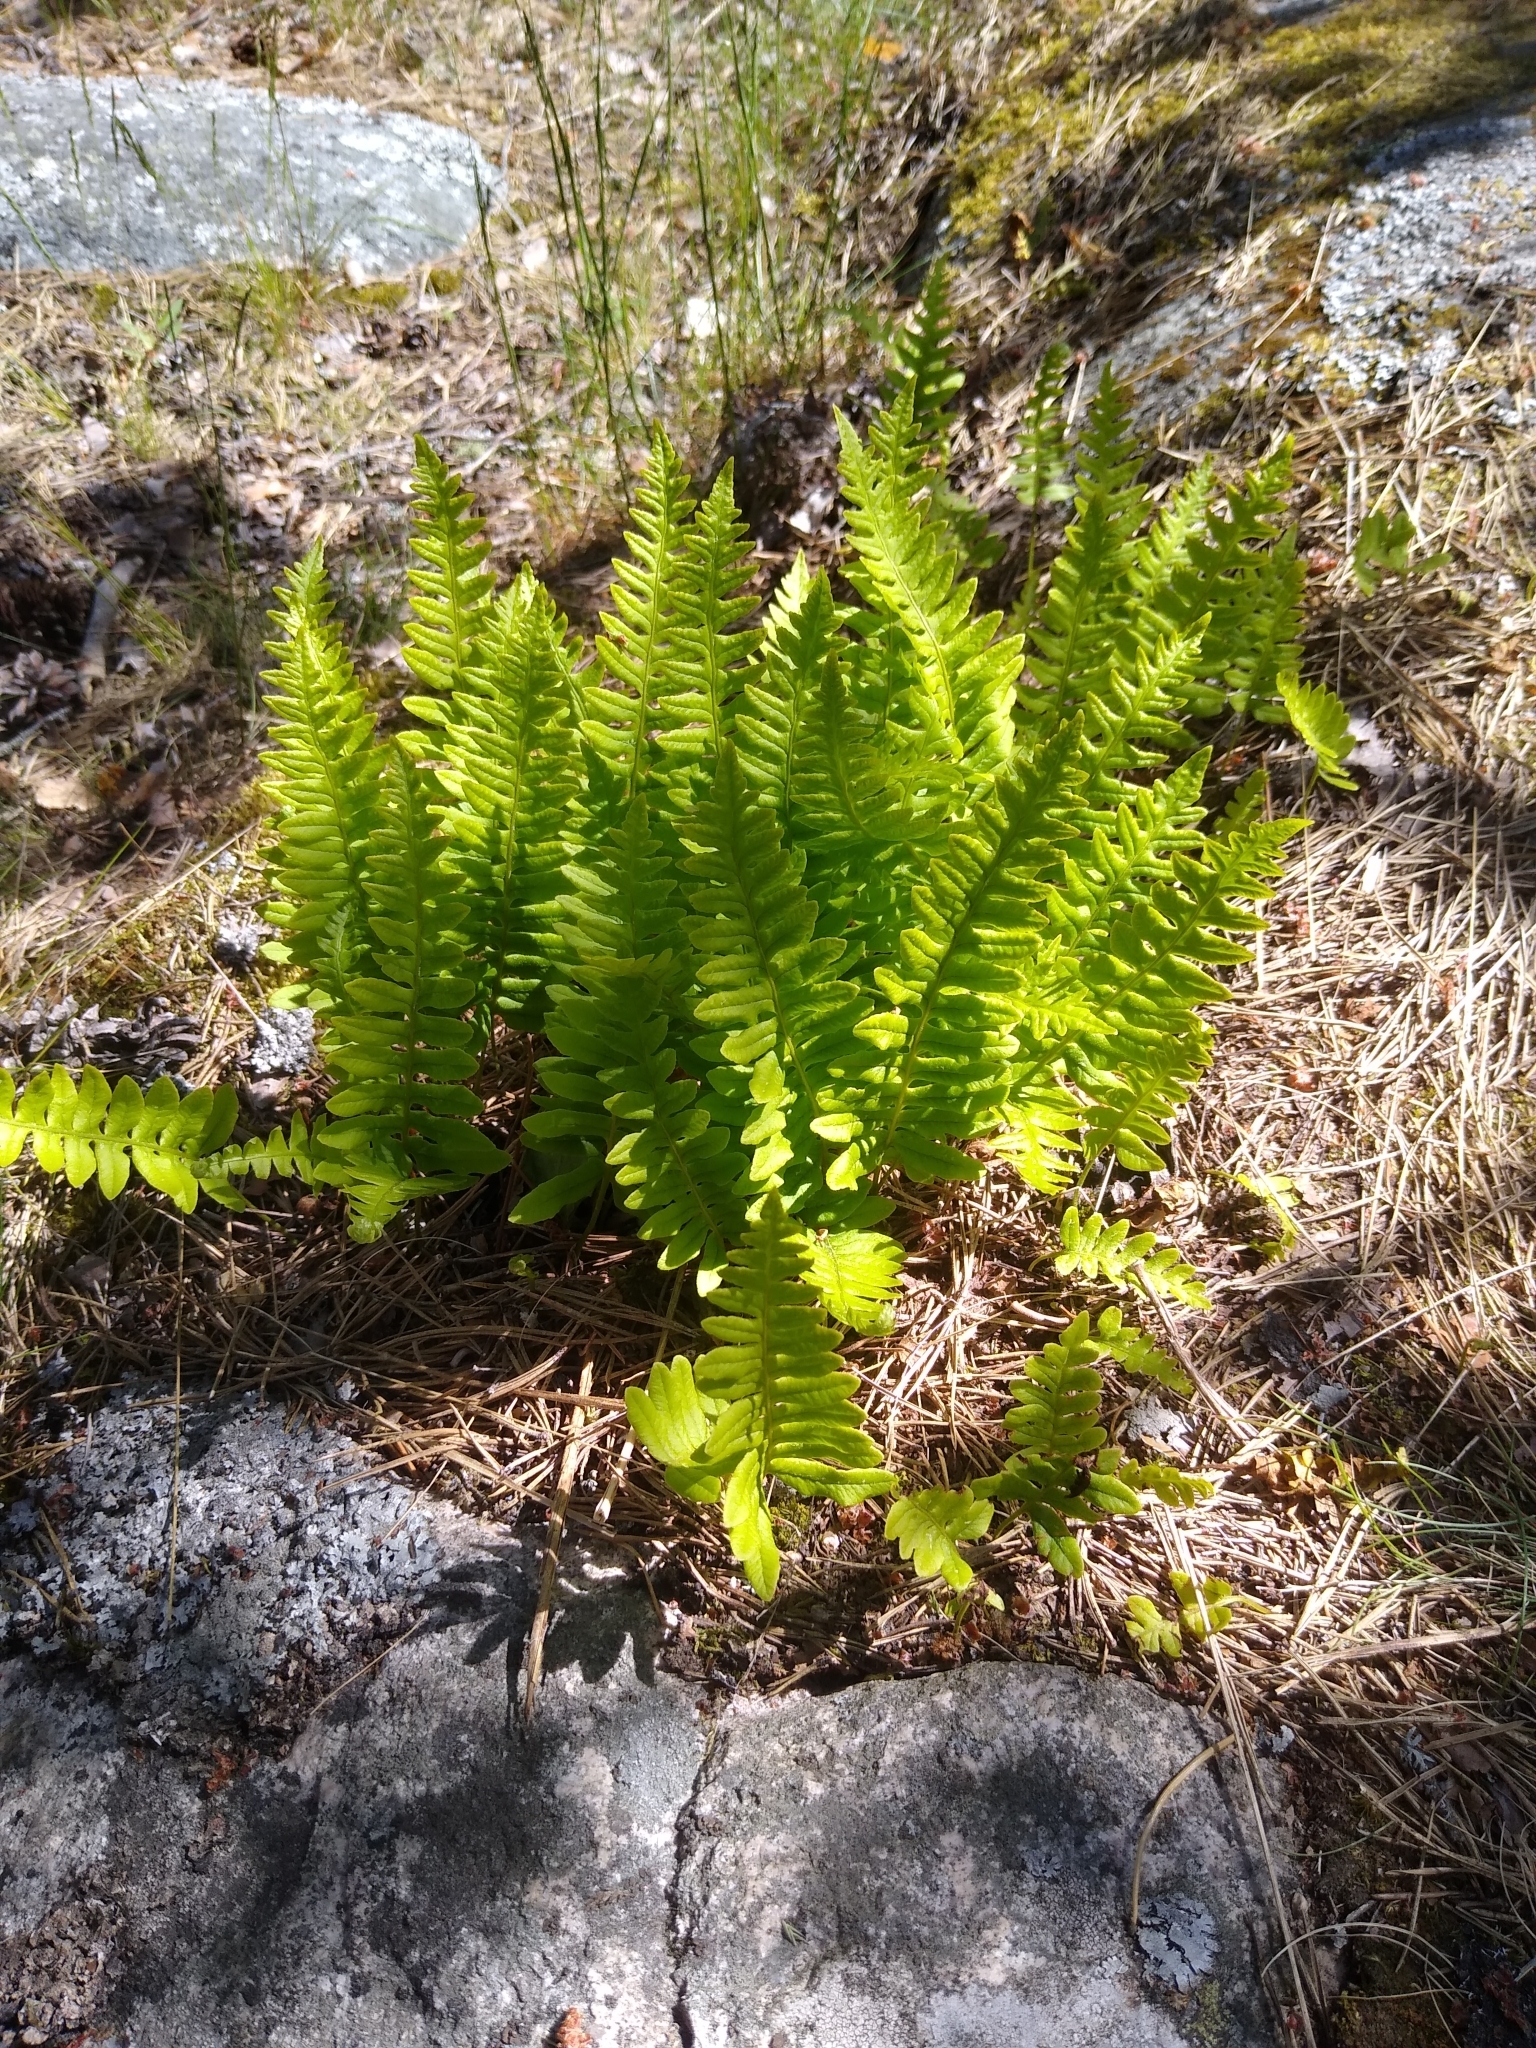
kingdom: Plantae
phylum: Tracheophyta
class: Polypodiopsida
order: Polypodiales
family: Polypodiaceae
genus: Polypodium
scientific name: Polypodium vulgare
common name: Common polypody
